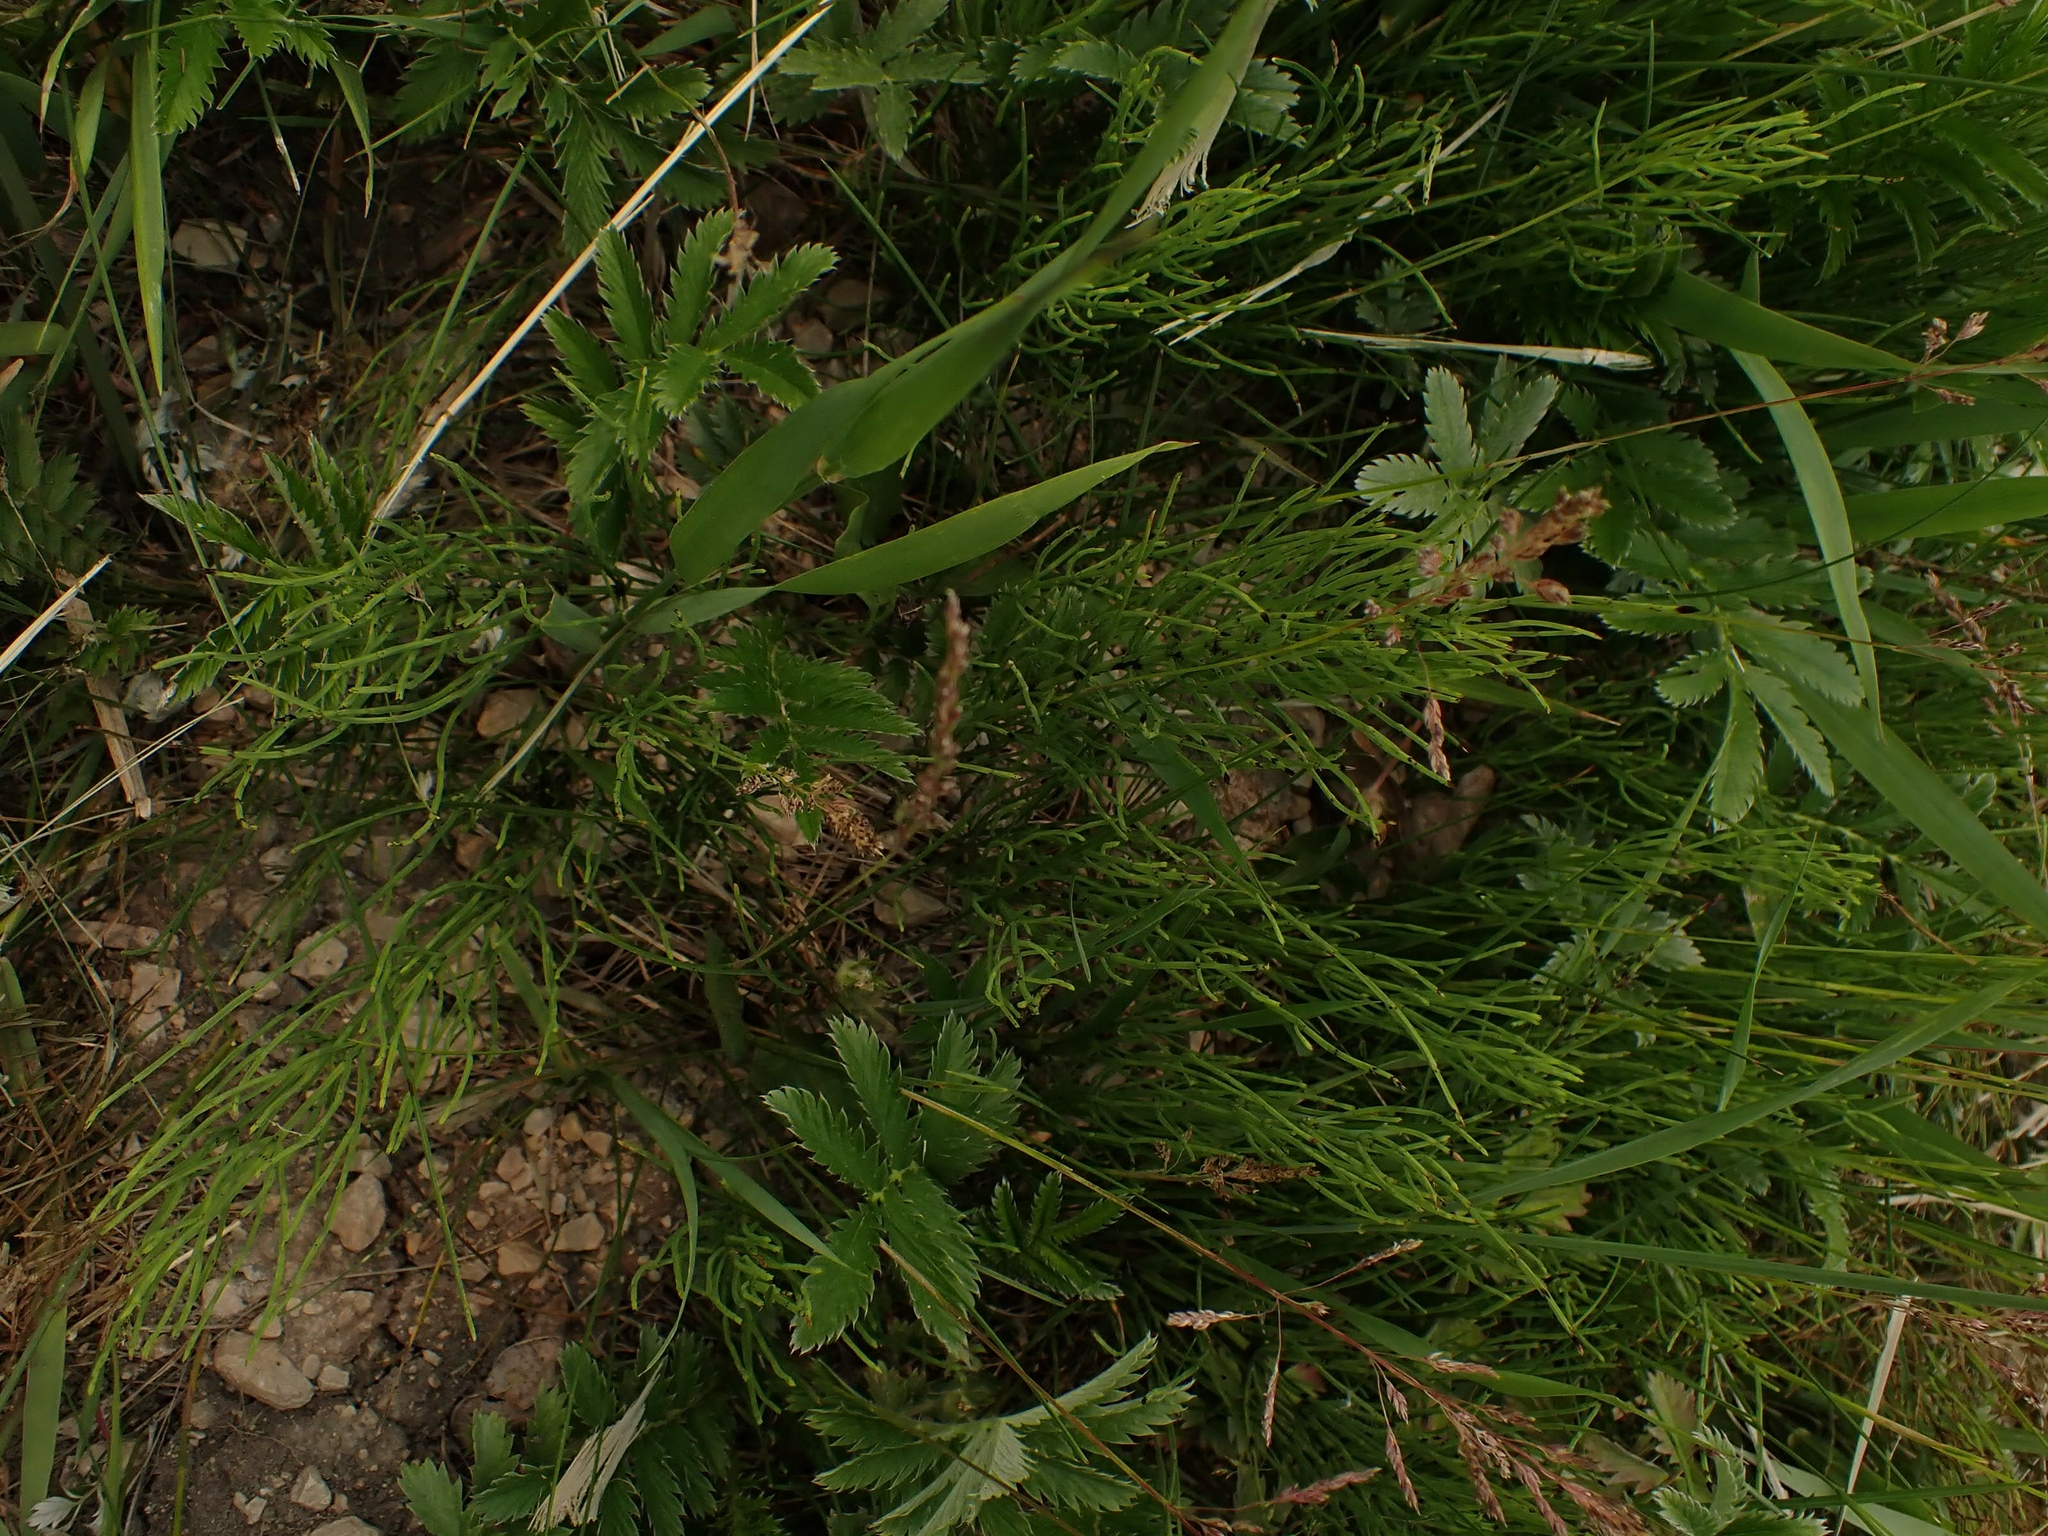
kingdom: Plantae
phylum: Tracheophyta
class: Polypodiopsida
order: Equisetales
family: Equisetaceae
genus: Equisetum
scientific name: Equisetum arvense
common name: Field horsetail
